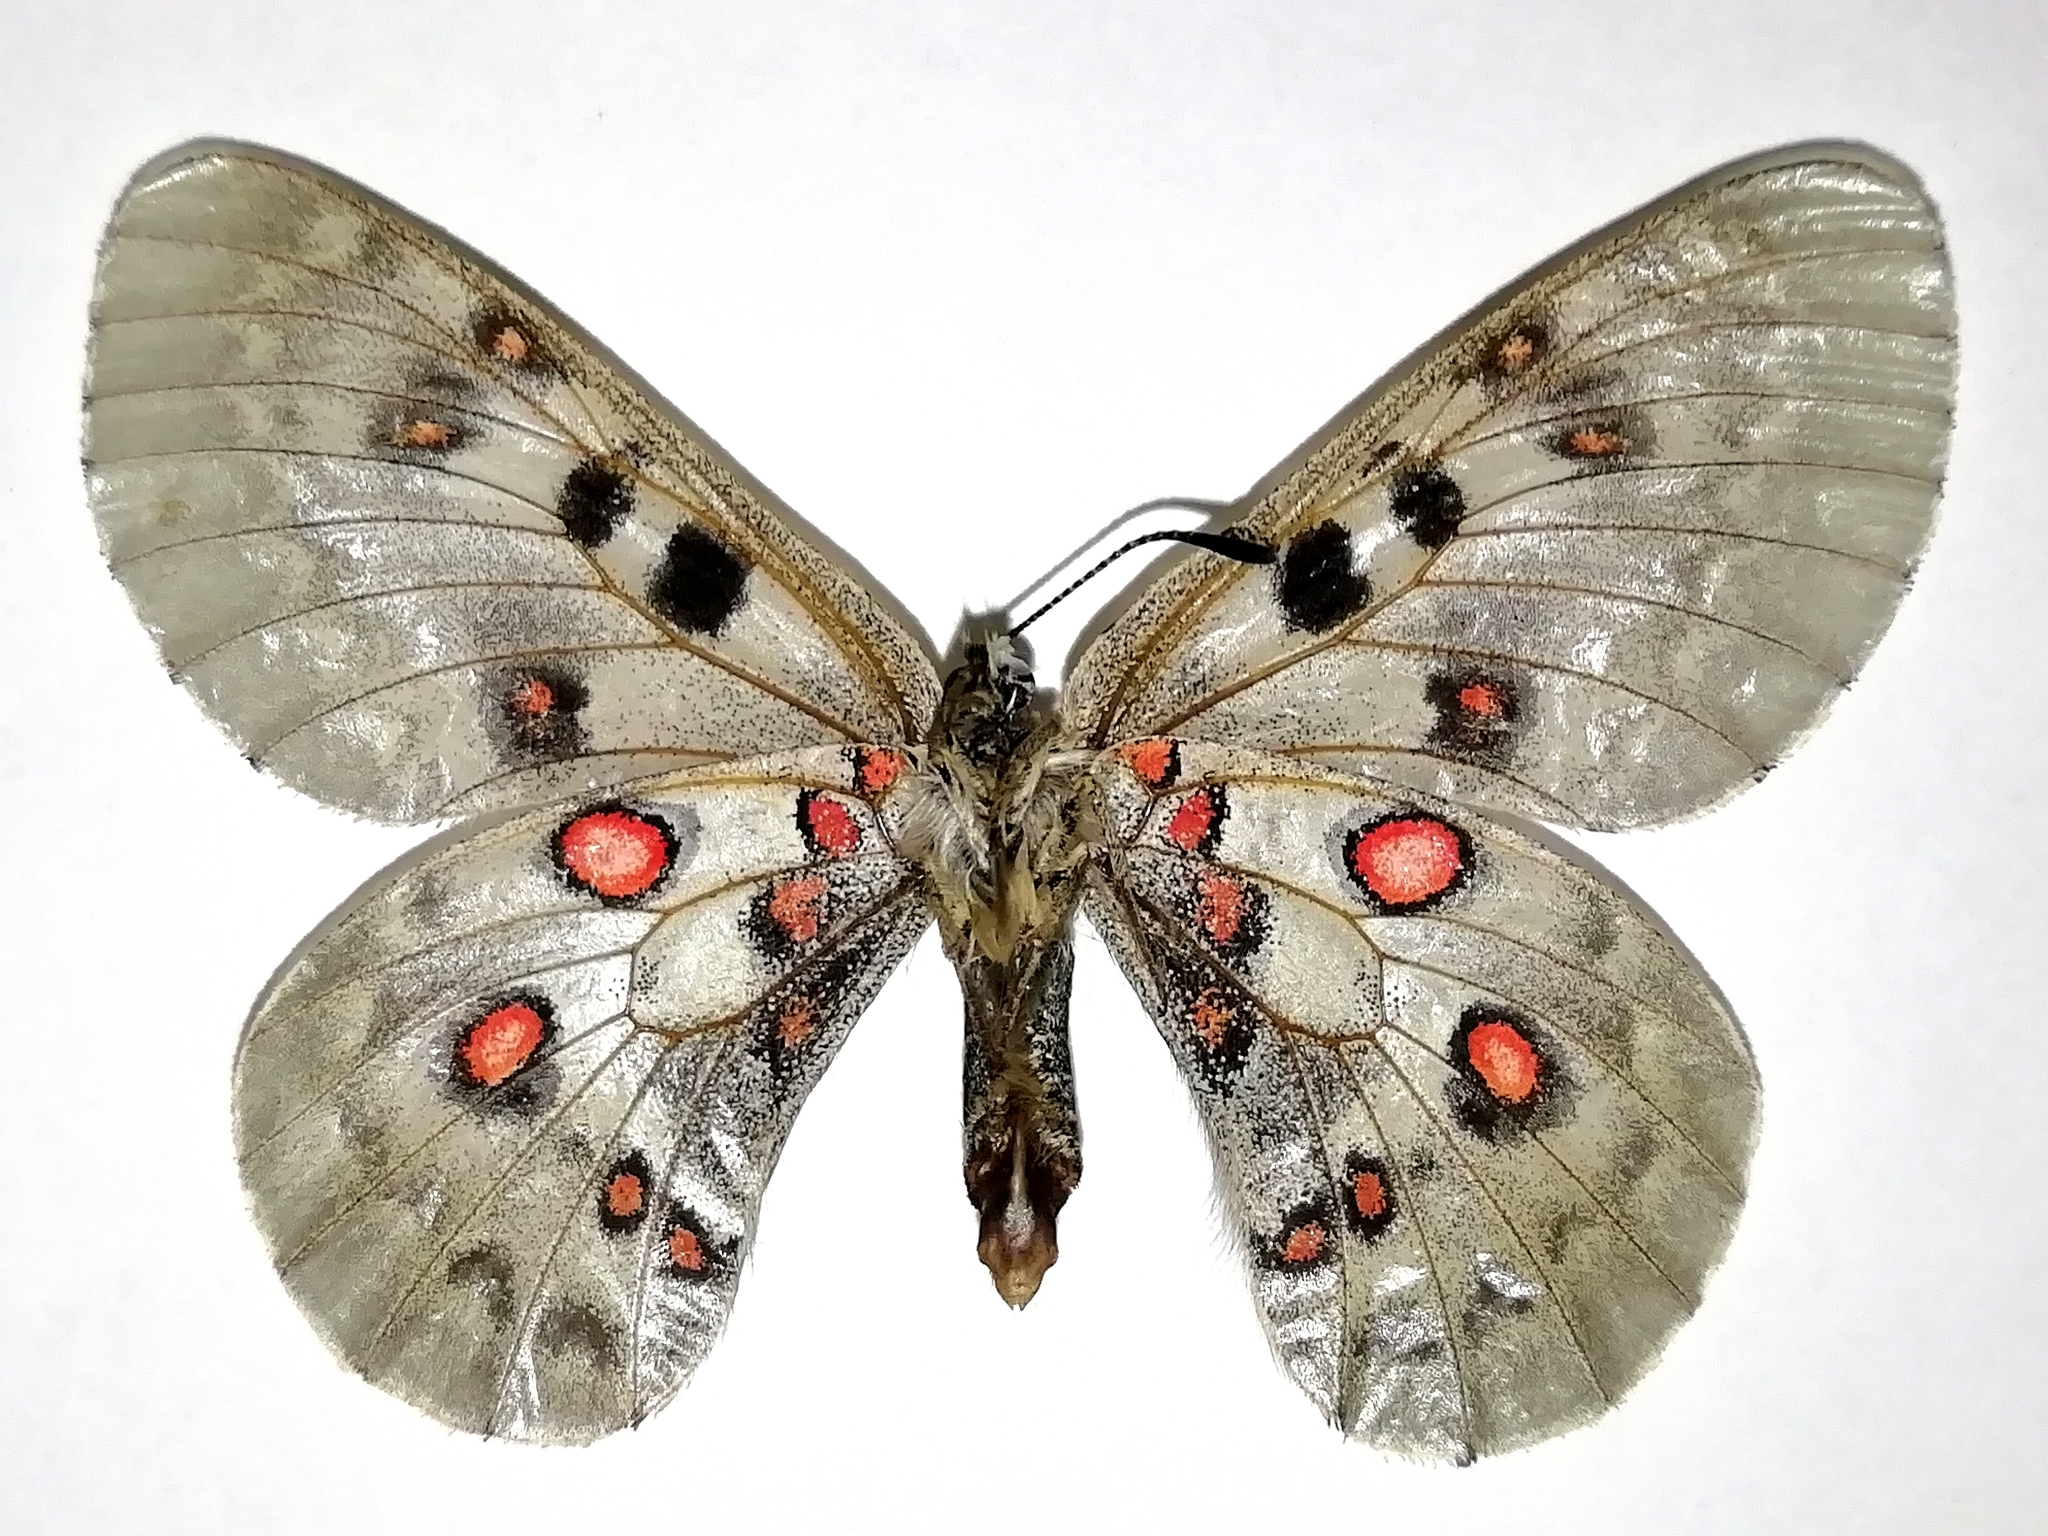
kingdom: Animalia
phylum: Arthropoda
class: Insecta
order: Lepidoptera
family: Papilionidae
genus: Parnassius
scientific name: Parnassius tianschanicus
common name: Large keeled apollo
